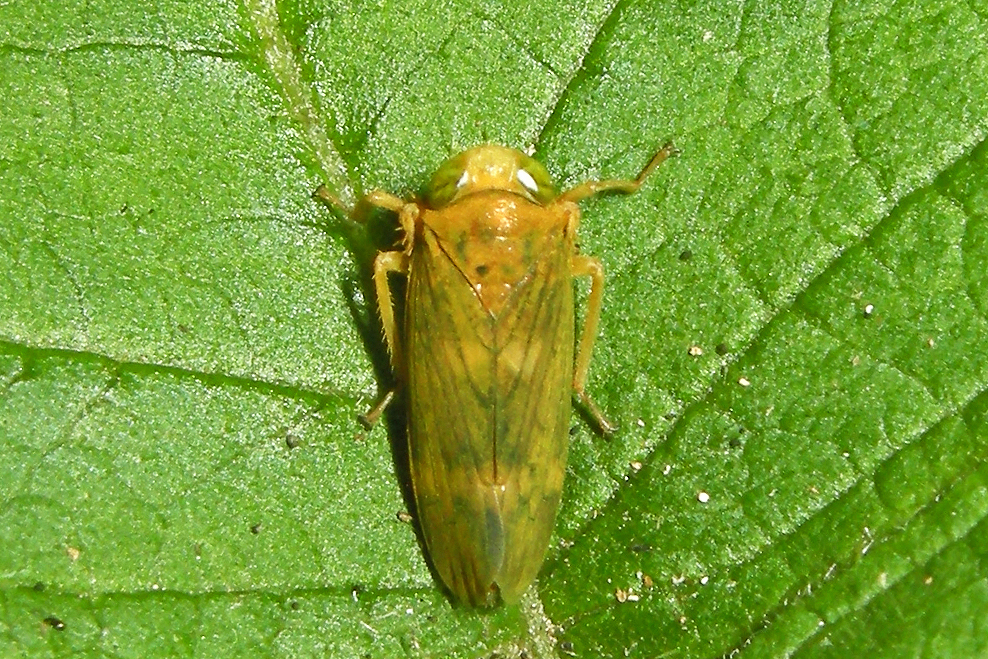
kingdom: Animalia
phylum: Arthropoda
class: Insecta
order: Hemiptera
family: Cicadellidae
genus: Jikradia
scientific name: Jikradia olitoria
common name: Coppery leafhopper
